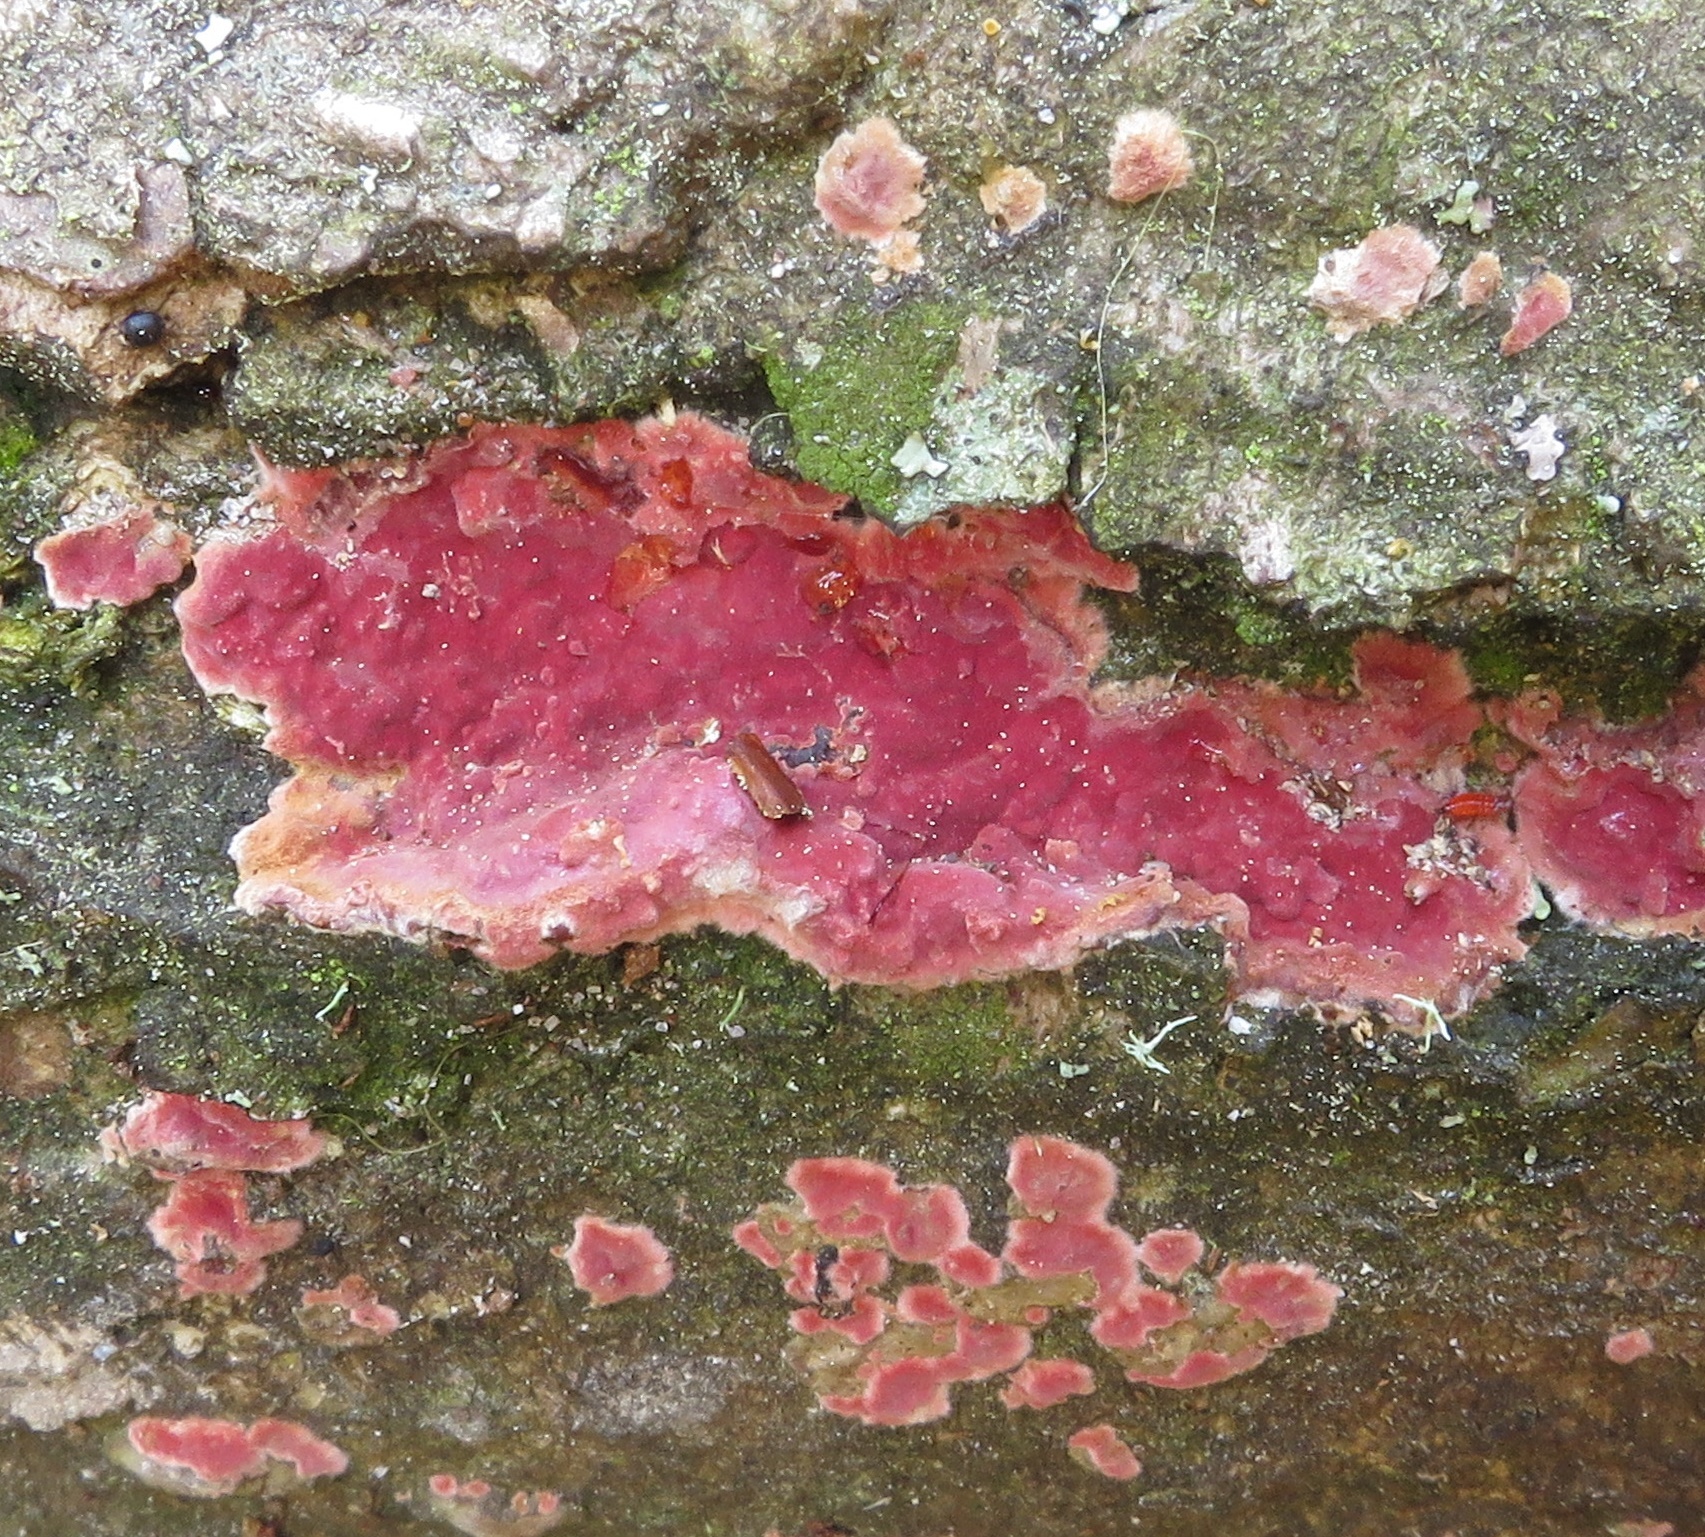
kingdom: Fungi
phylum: Basidiomycota
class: Agaricomycetes
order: Polyporales
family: Irpicaceae
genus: Byssomerulius
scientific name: Byssomerulius psittacinus
